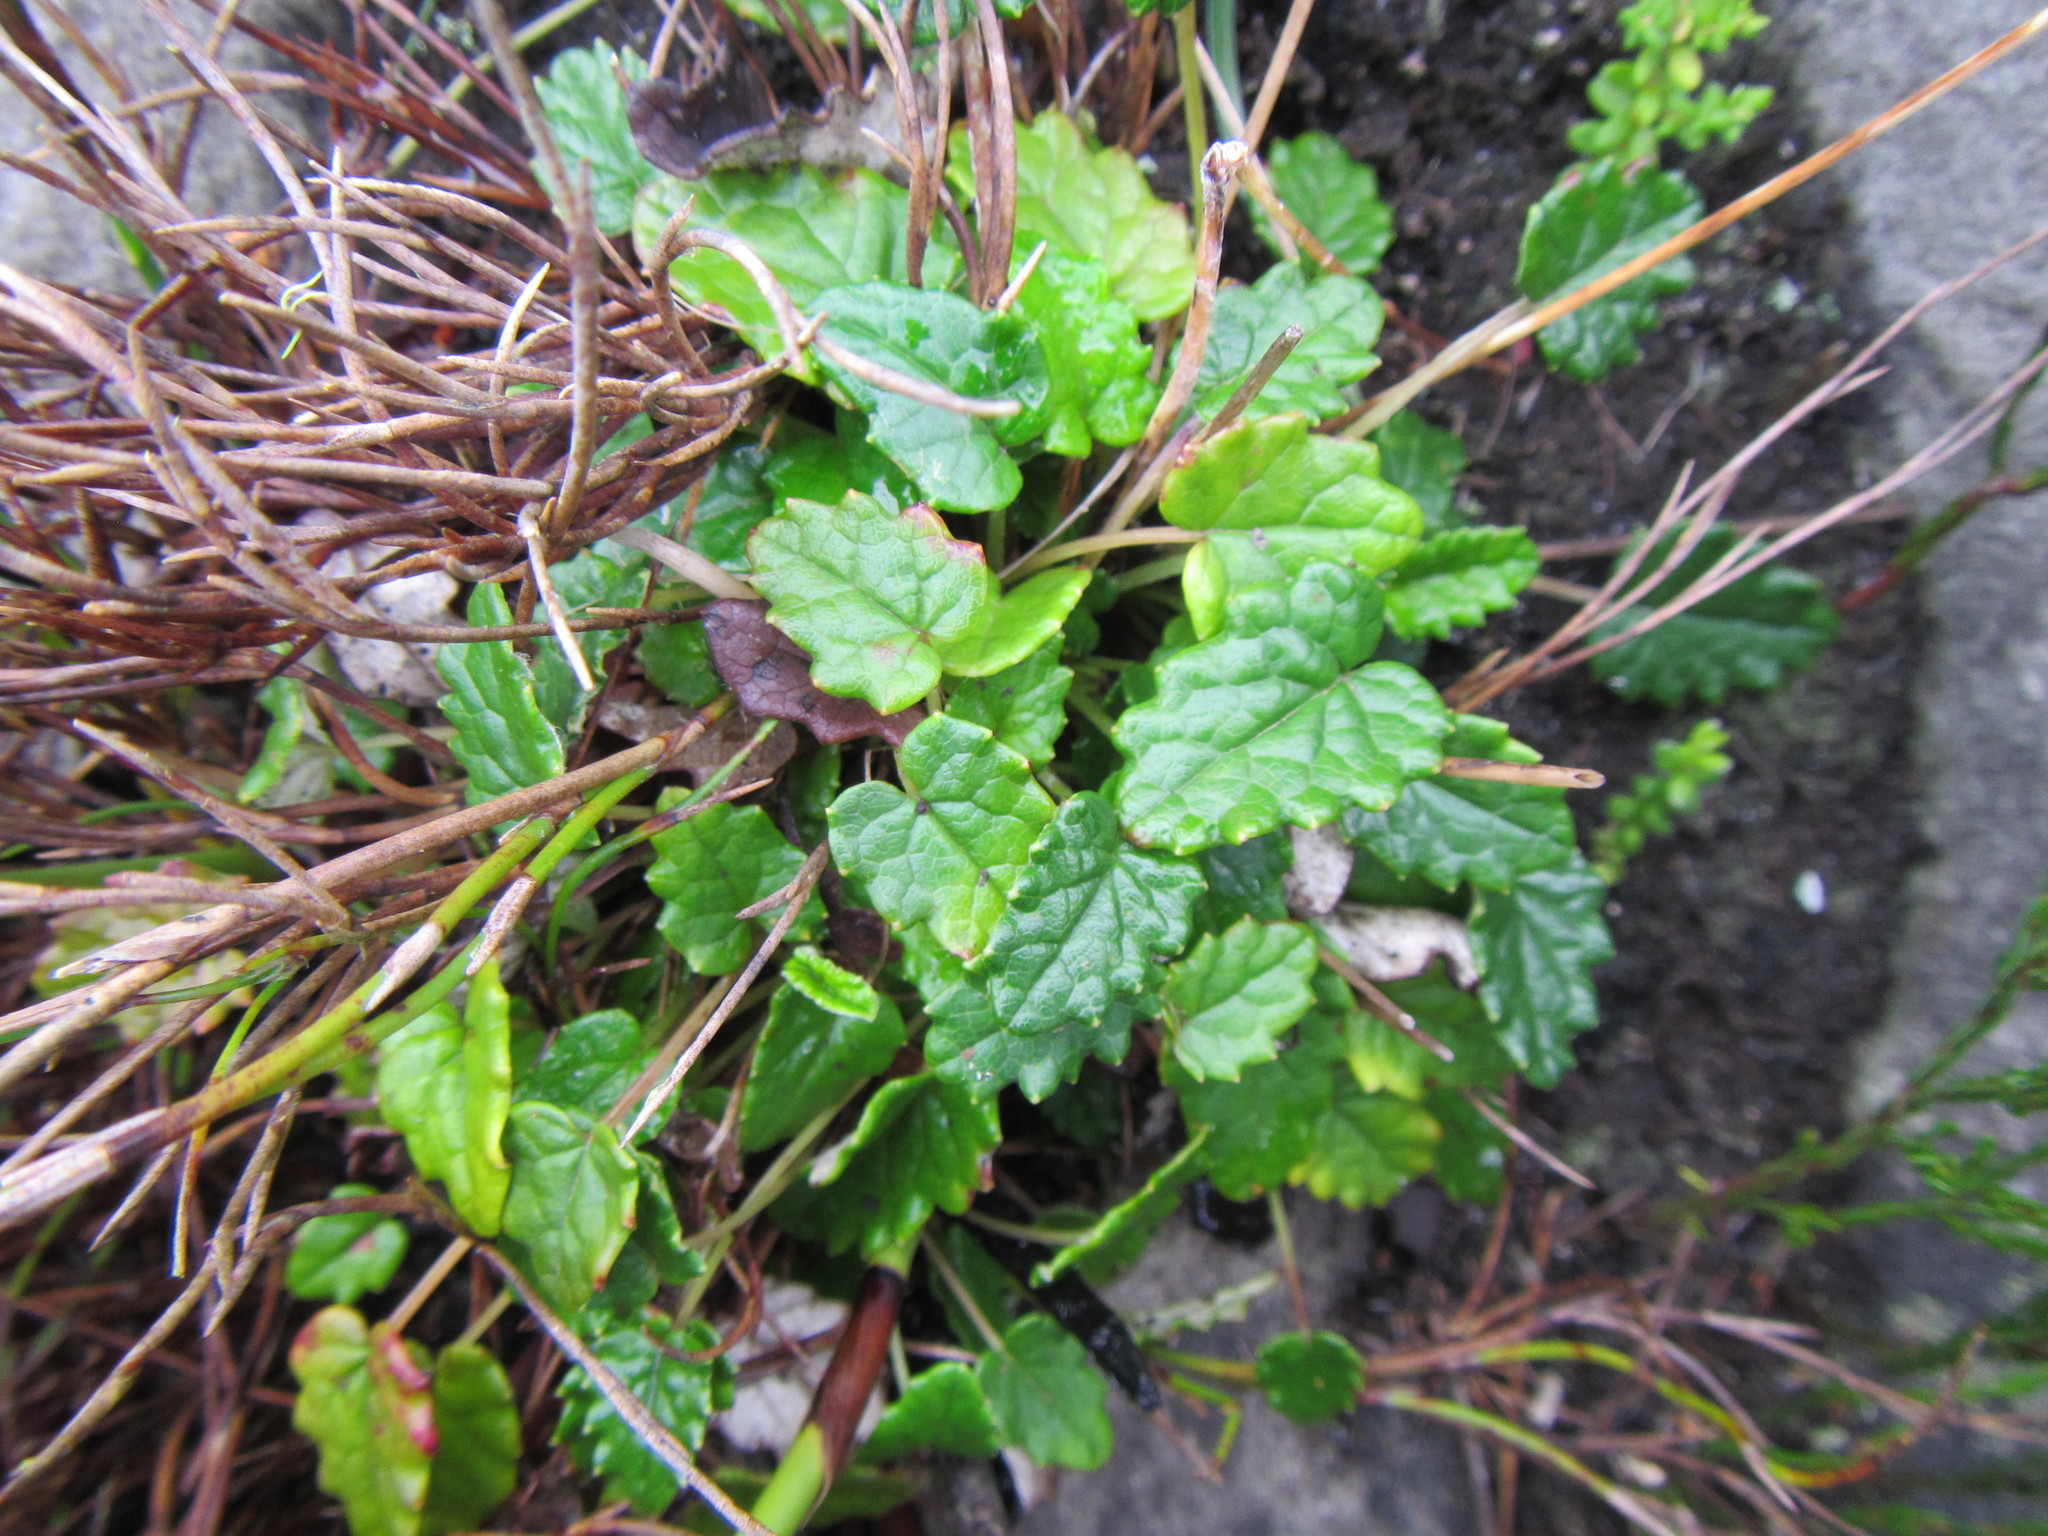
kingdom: Plantae
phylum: Tracheophyta
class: Magnoliopsida
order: Apiales
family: Apiaceae
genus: Hermas
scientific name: Hermas capitata
